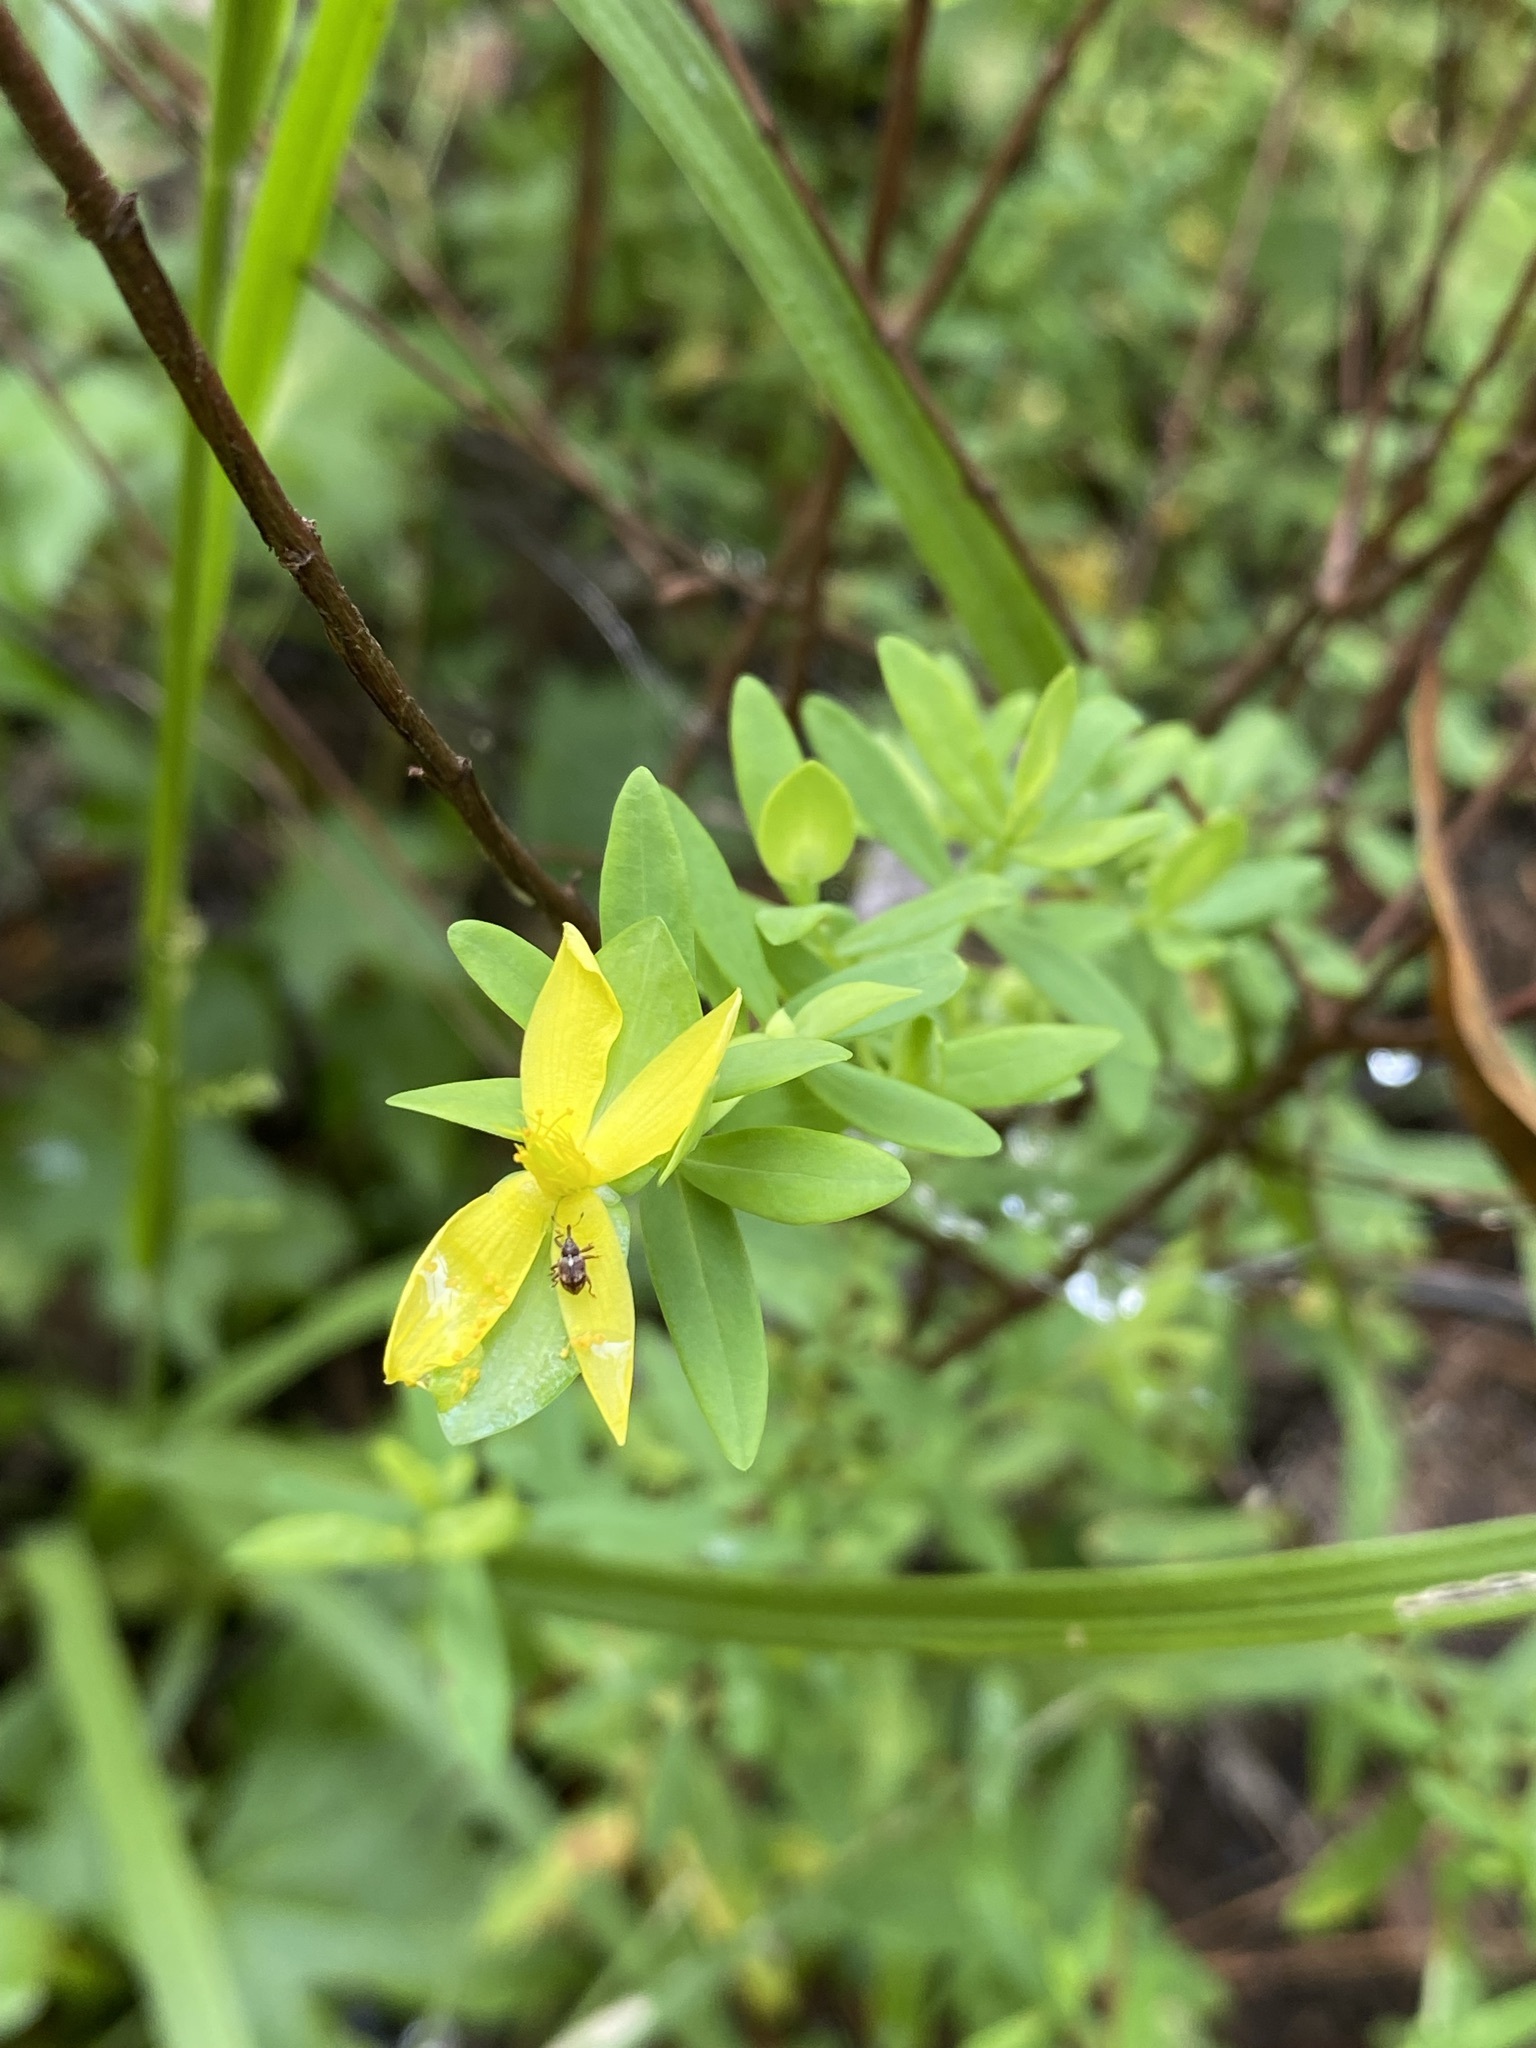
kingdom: Plantae
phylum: Tracheophyta
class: Magnoliopsida
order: Malpighiales
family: Hypericaceae
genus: Hypericum
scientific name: Hypericum hypericoides
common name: St. andrew's cross
